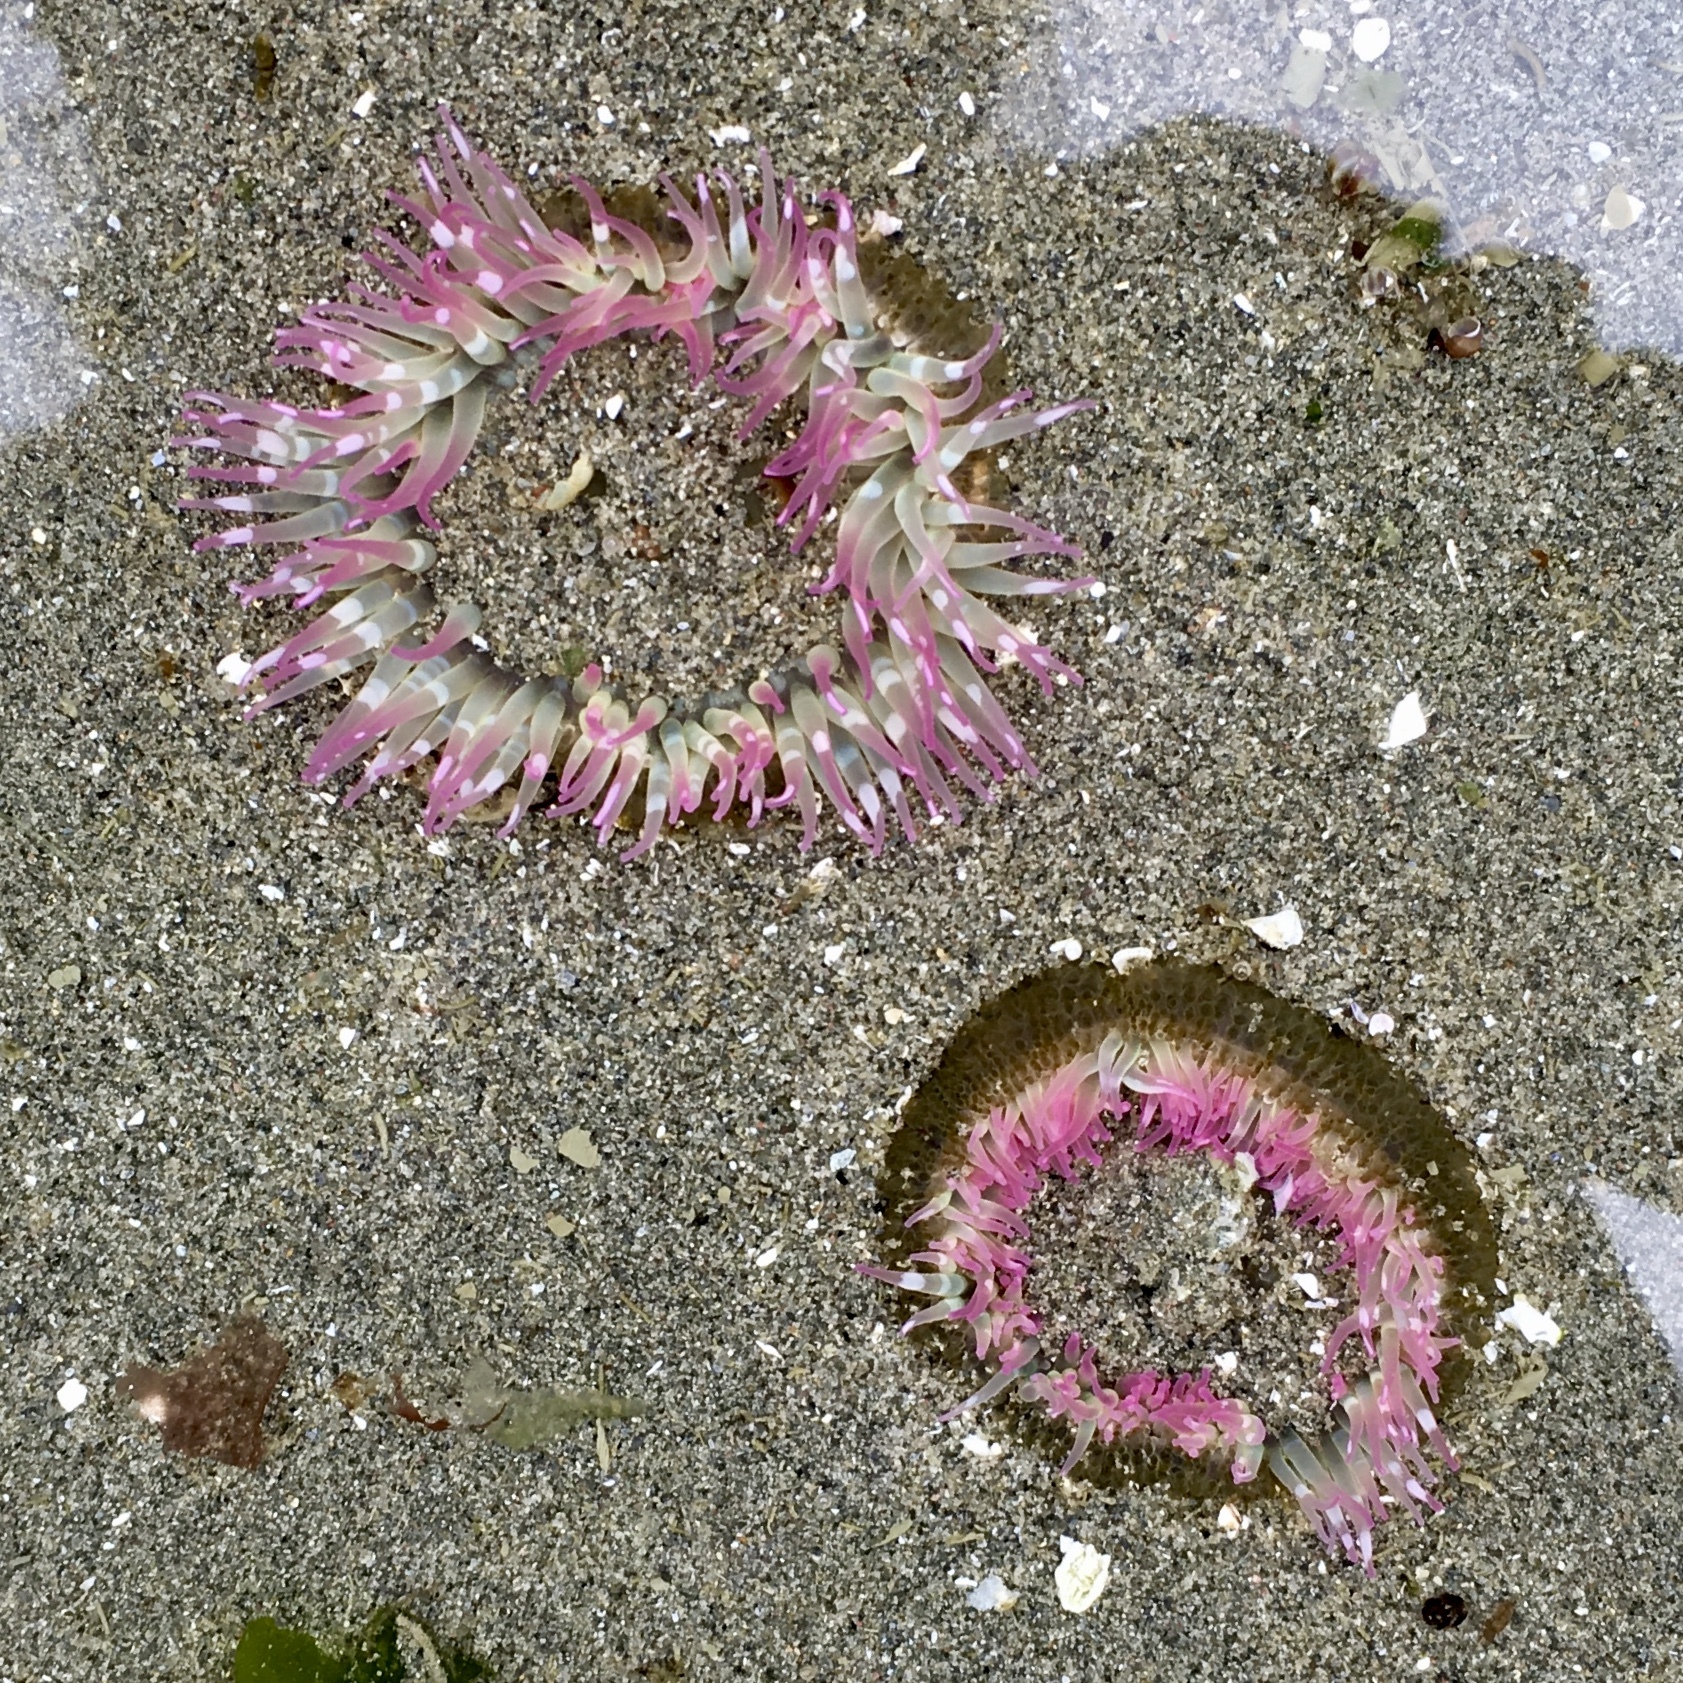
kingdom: Animalia
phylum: Cnidaria
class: Anthozoa
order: Actiniaria
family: Actiniidae
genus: Anthopleura
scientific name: Anthopleura elegantissima
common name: Clonal anemone
